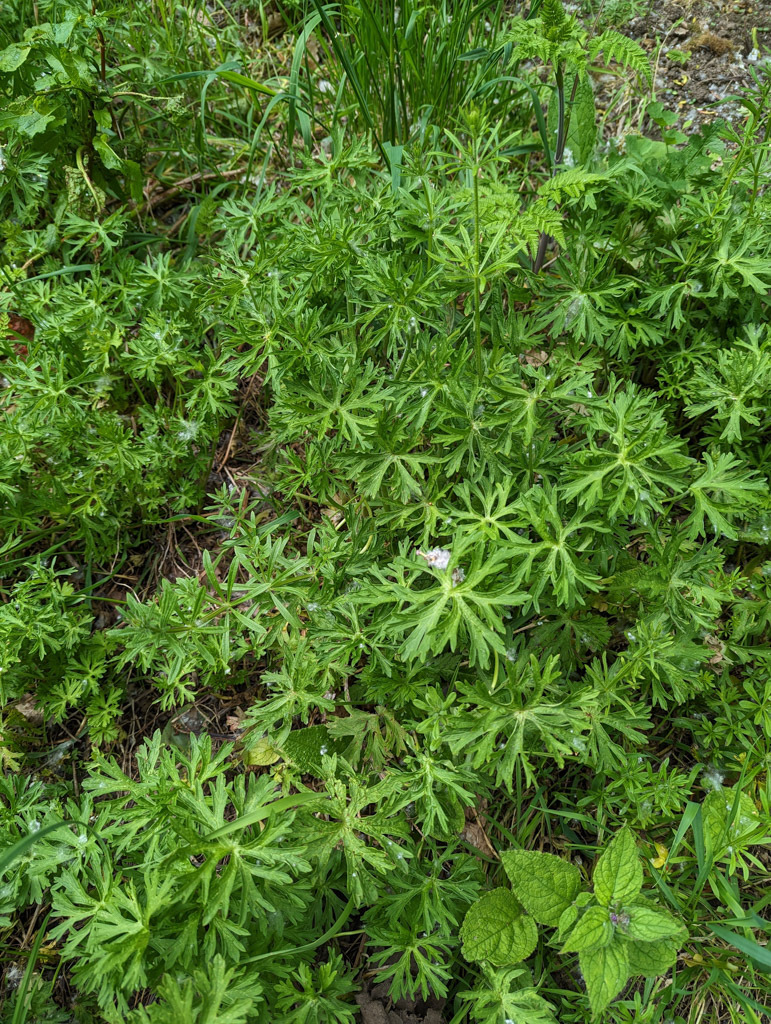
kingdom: Plantae
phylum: Tracheophyta
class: Magnoliopsida
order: Geraniales
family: Geraniaceae
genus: Geranium
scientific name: Geranium dissectum
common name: Cut-leaved crane's-bill
